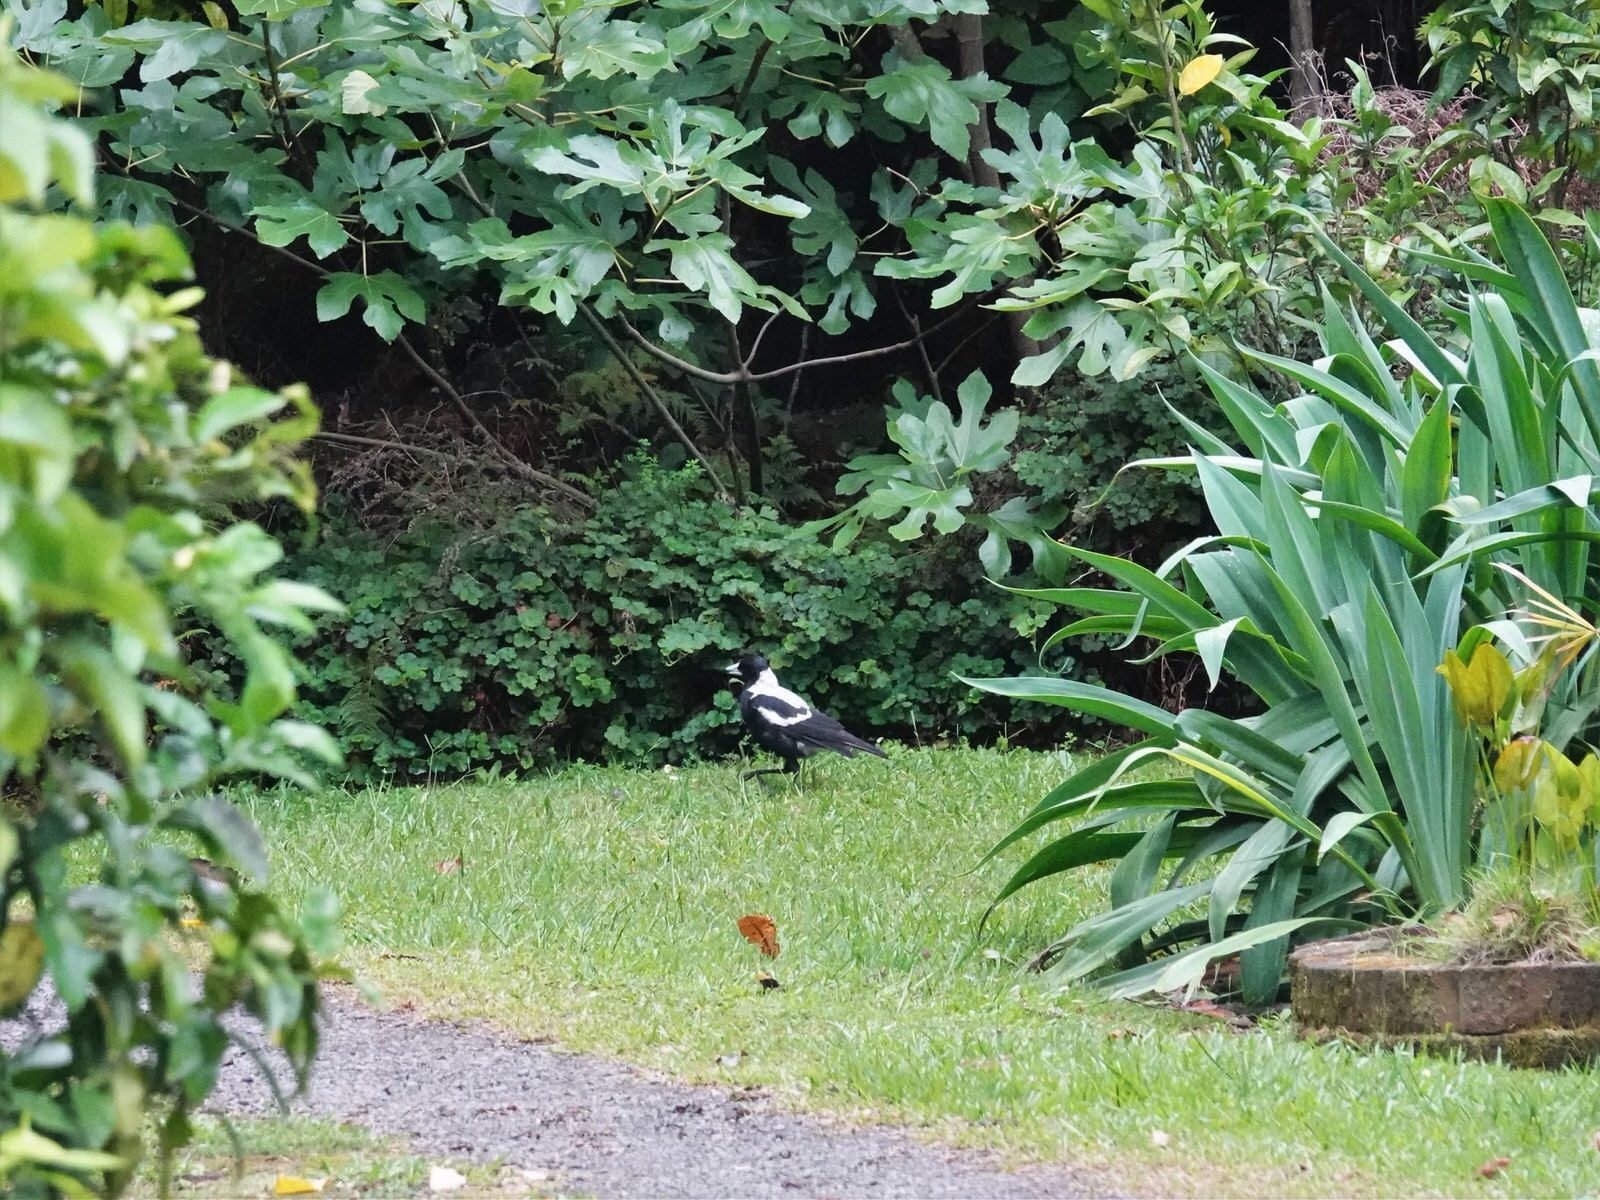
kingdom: Animalia
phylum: Chordata
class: Aves
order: Passeriformes
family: Cracticidae
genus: Gymnorhina
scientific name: Gymnorhina tibicen
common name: Australian magpie
